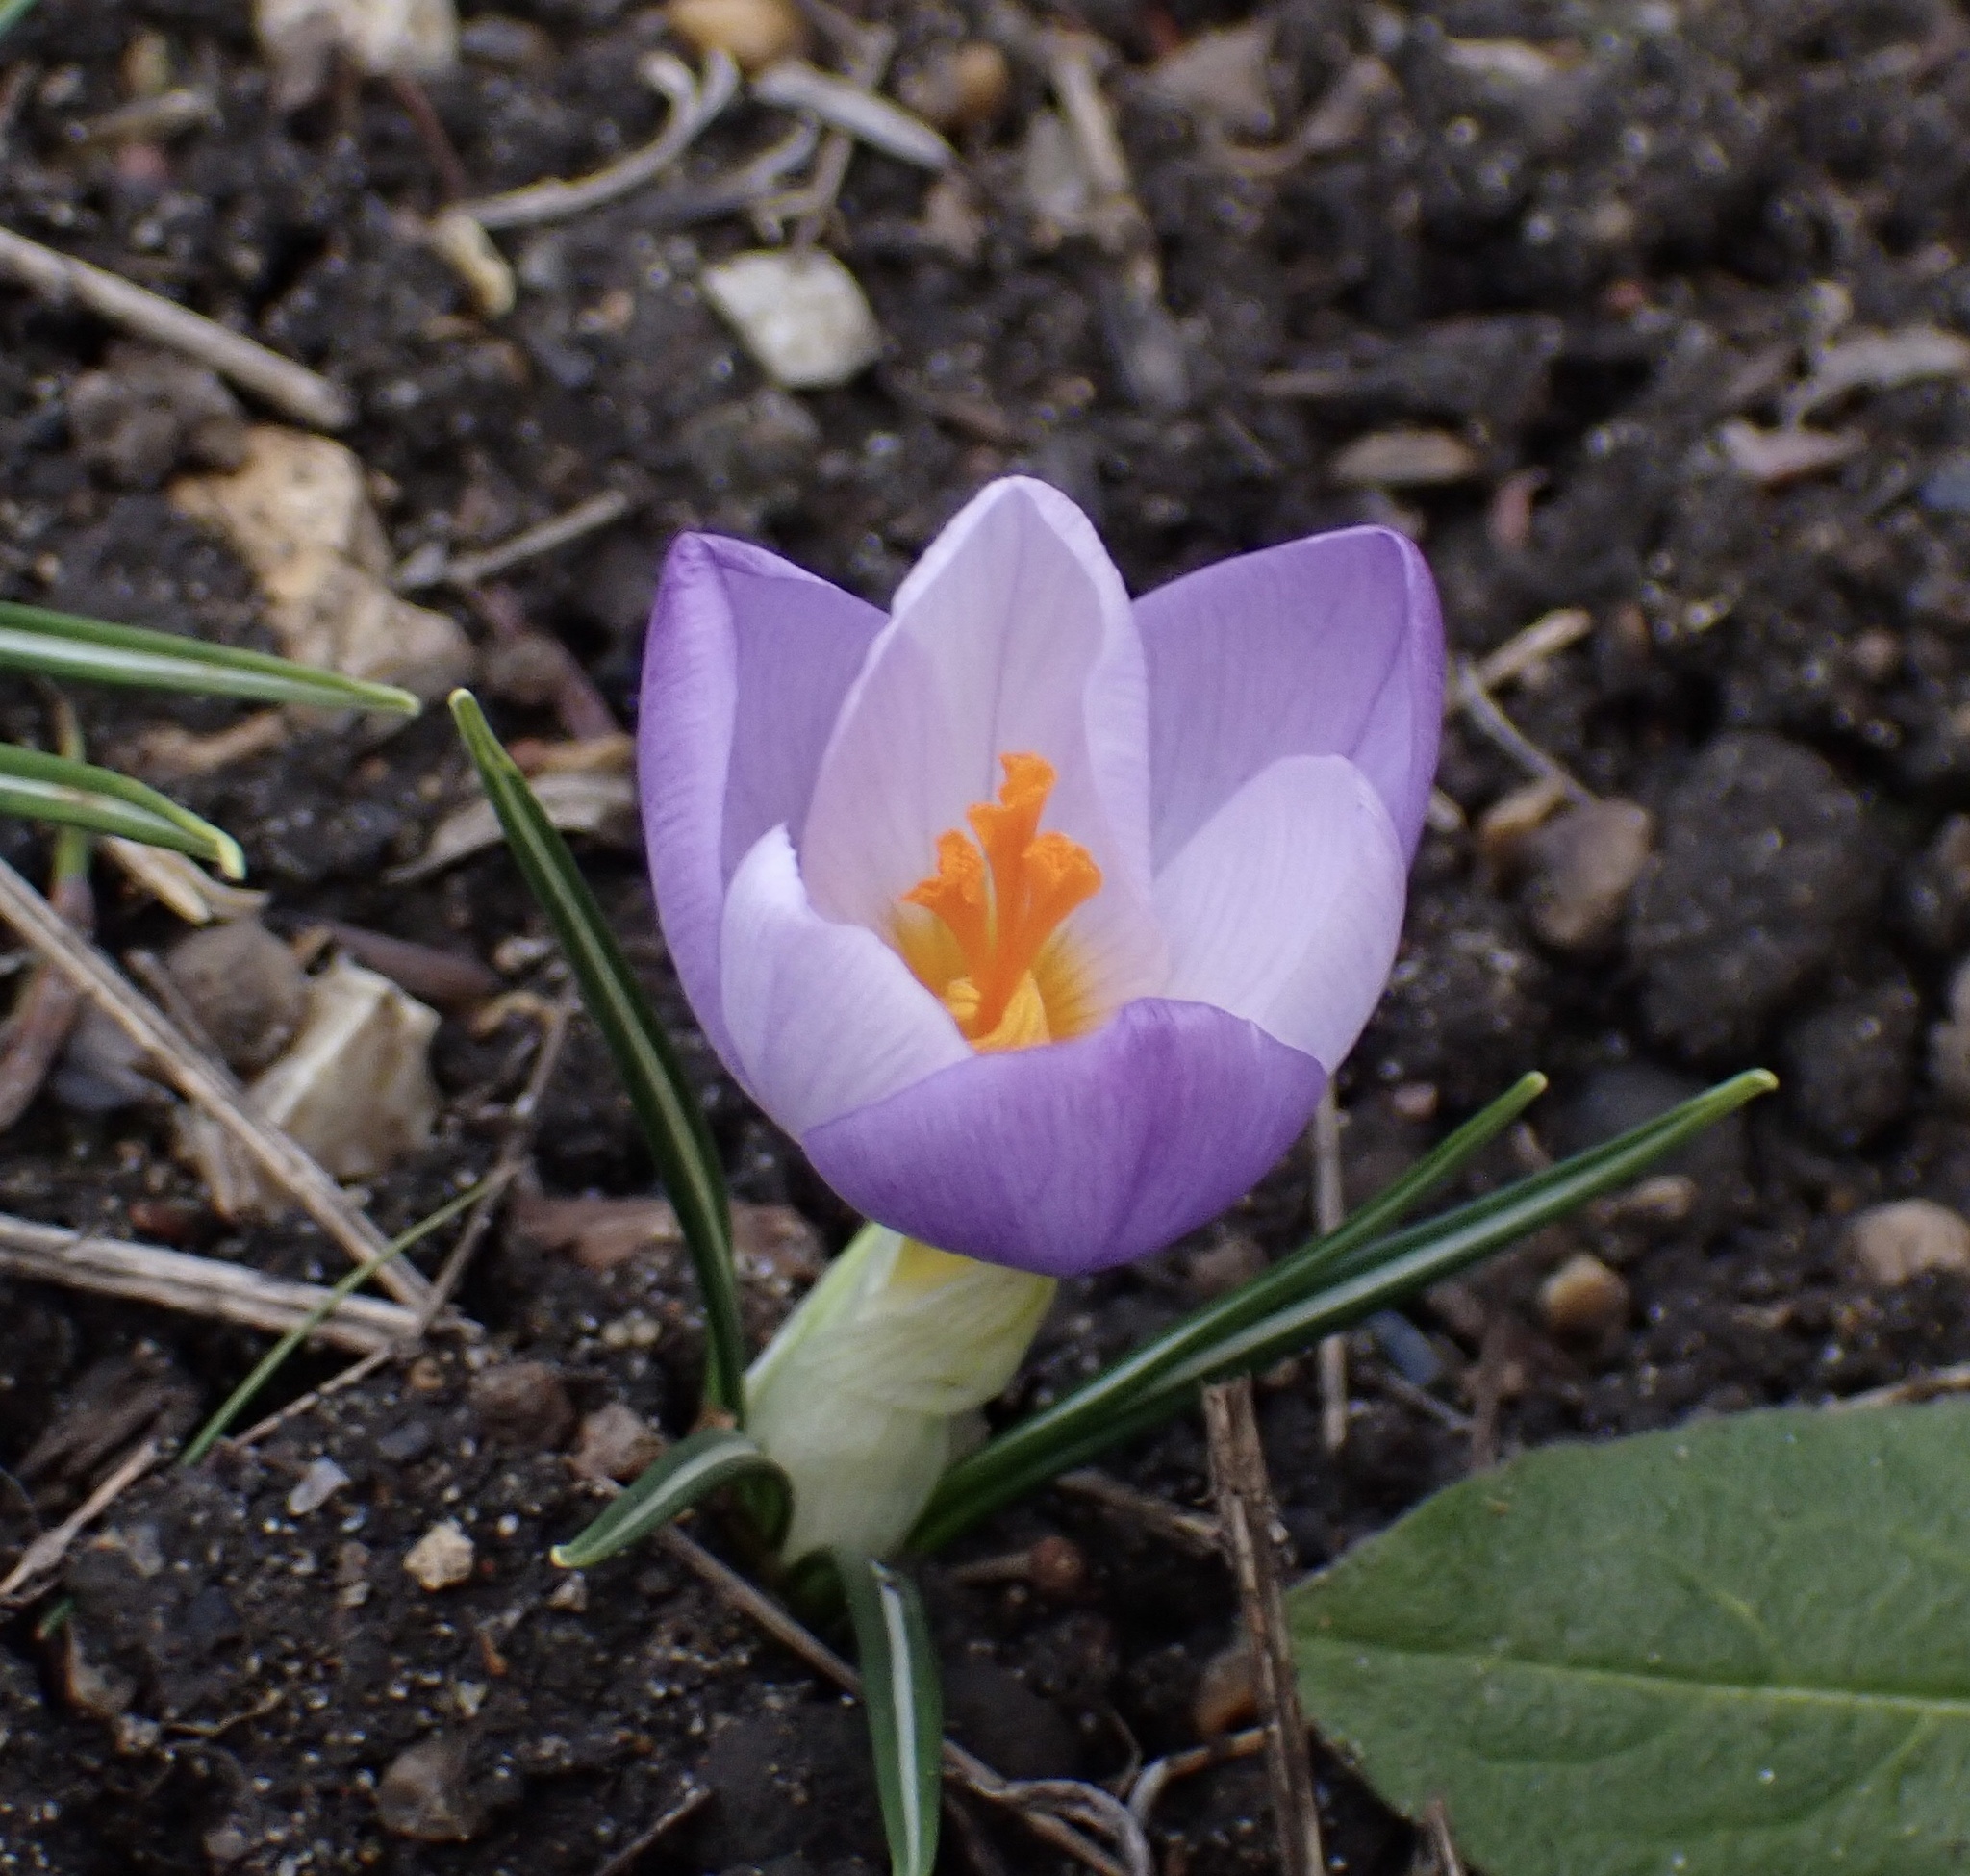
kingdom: Plantae
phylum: Tracheophyta
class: Liliopsida
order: Asparagales
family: Iridaceae
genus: Crocus
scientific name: Crocus atticus
